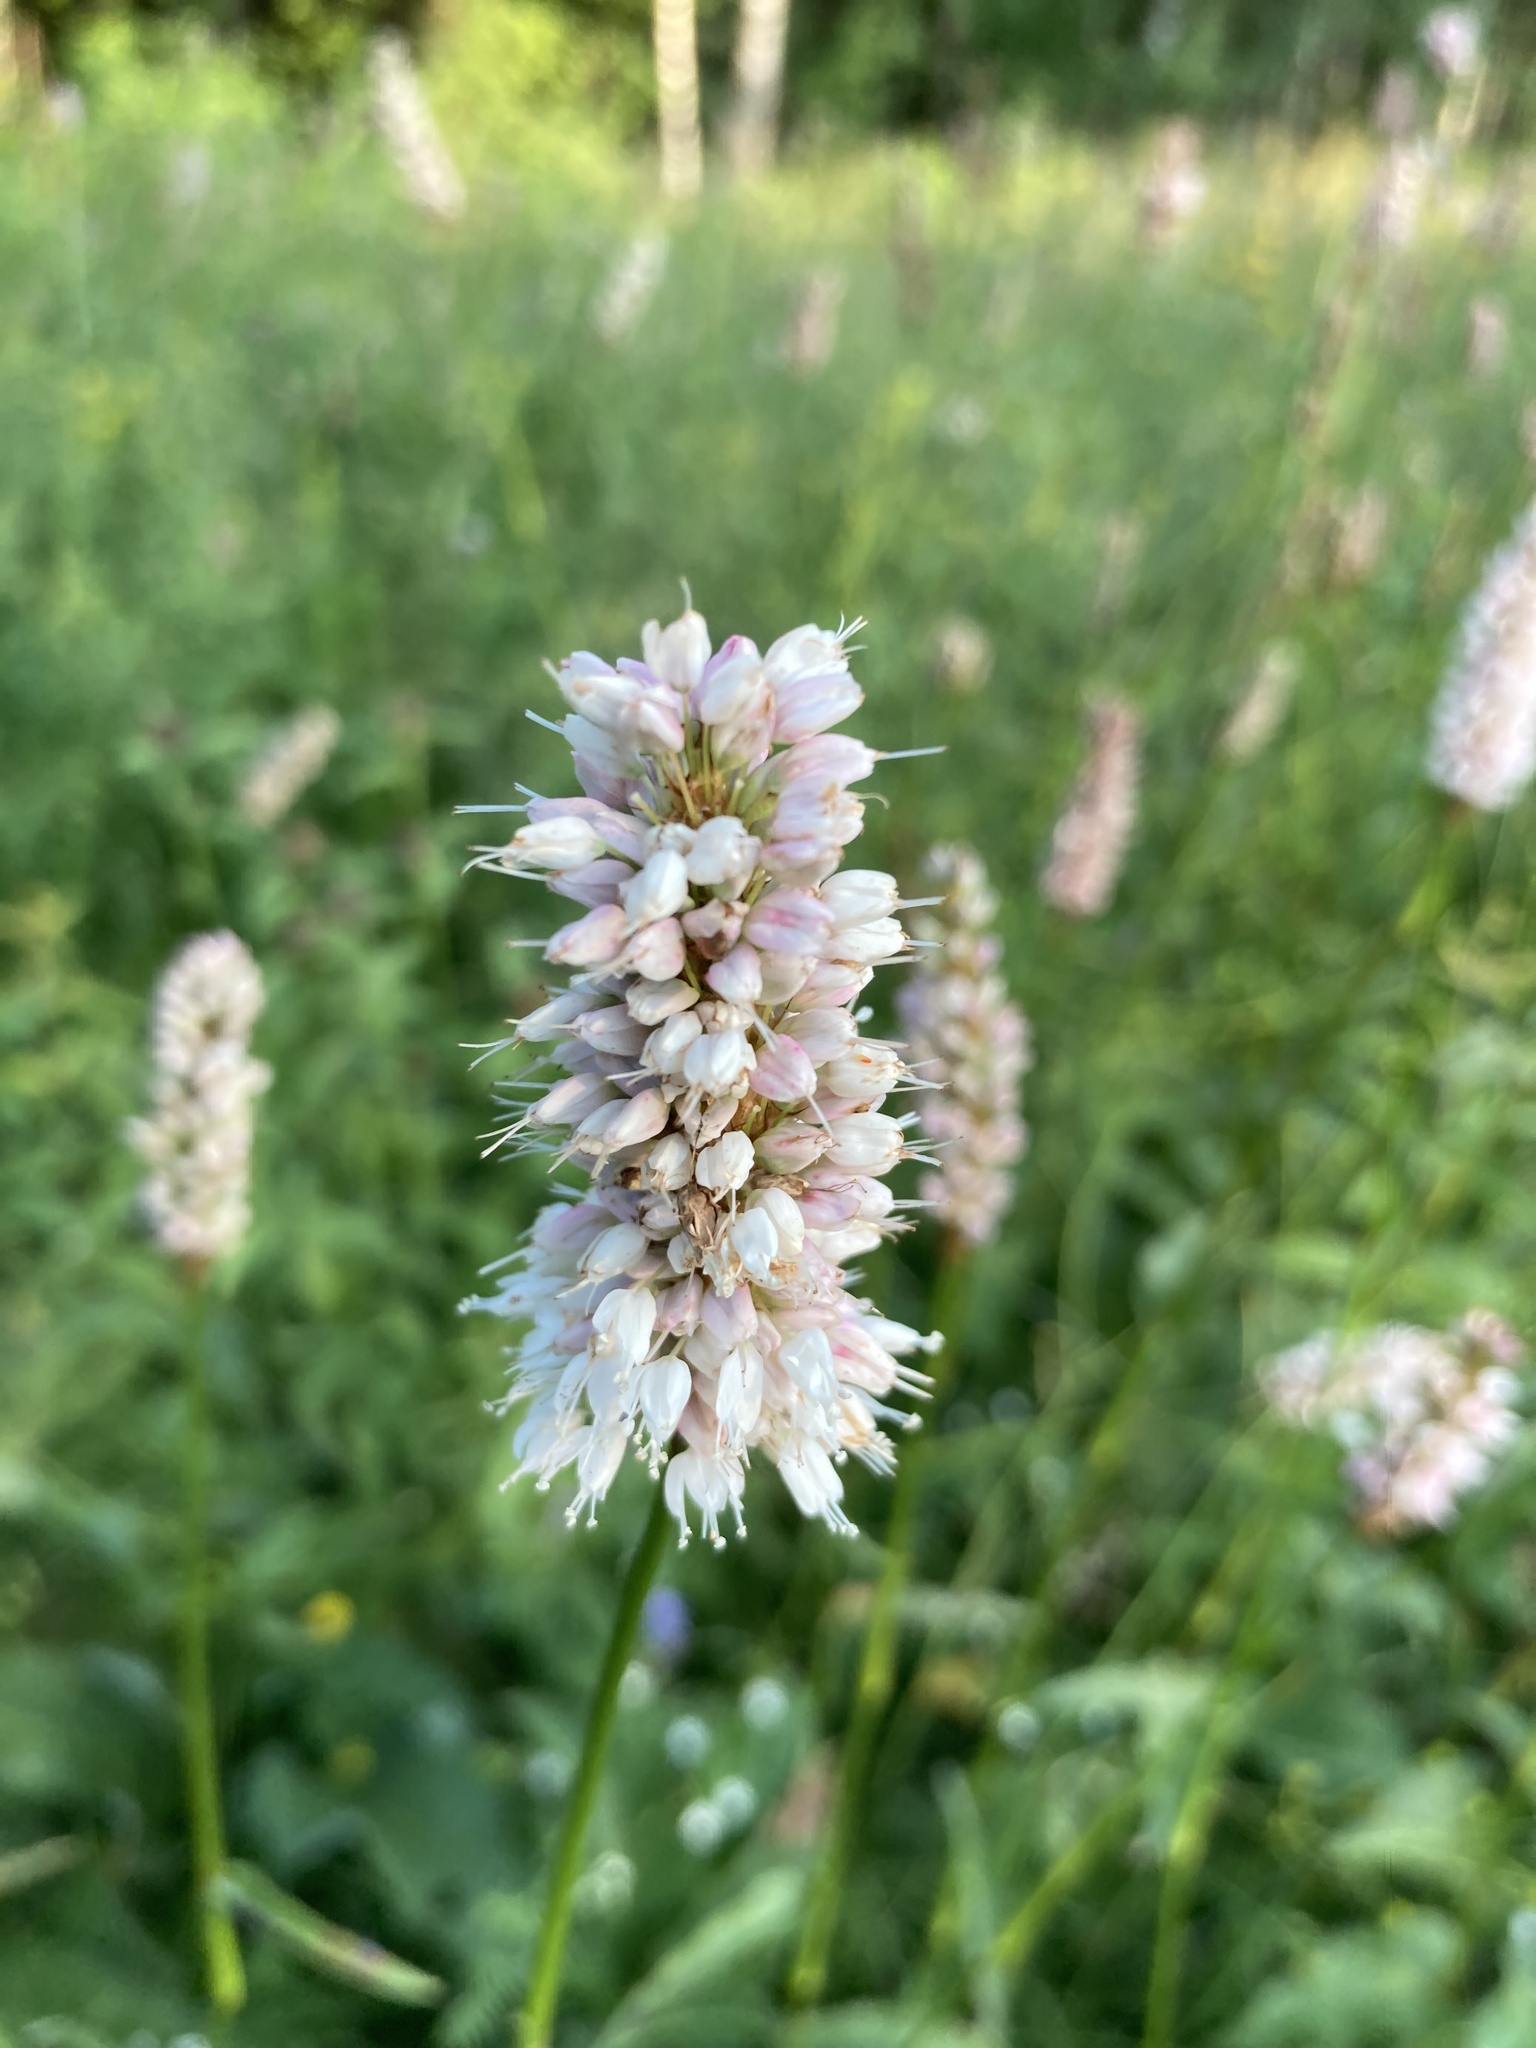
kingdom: Plantae
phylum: Tracheophyta
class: Magnoliopsida
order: Caryophyllales
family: Polygonaceae
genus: Bistorta
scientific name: Bistorta officinalis
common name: Common bistort
